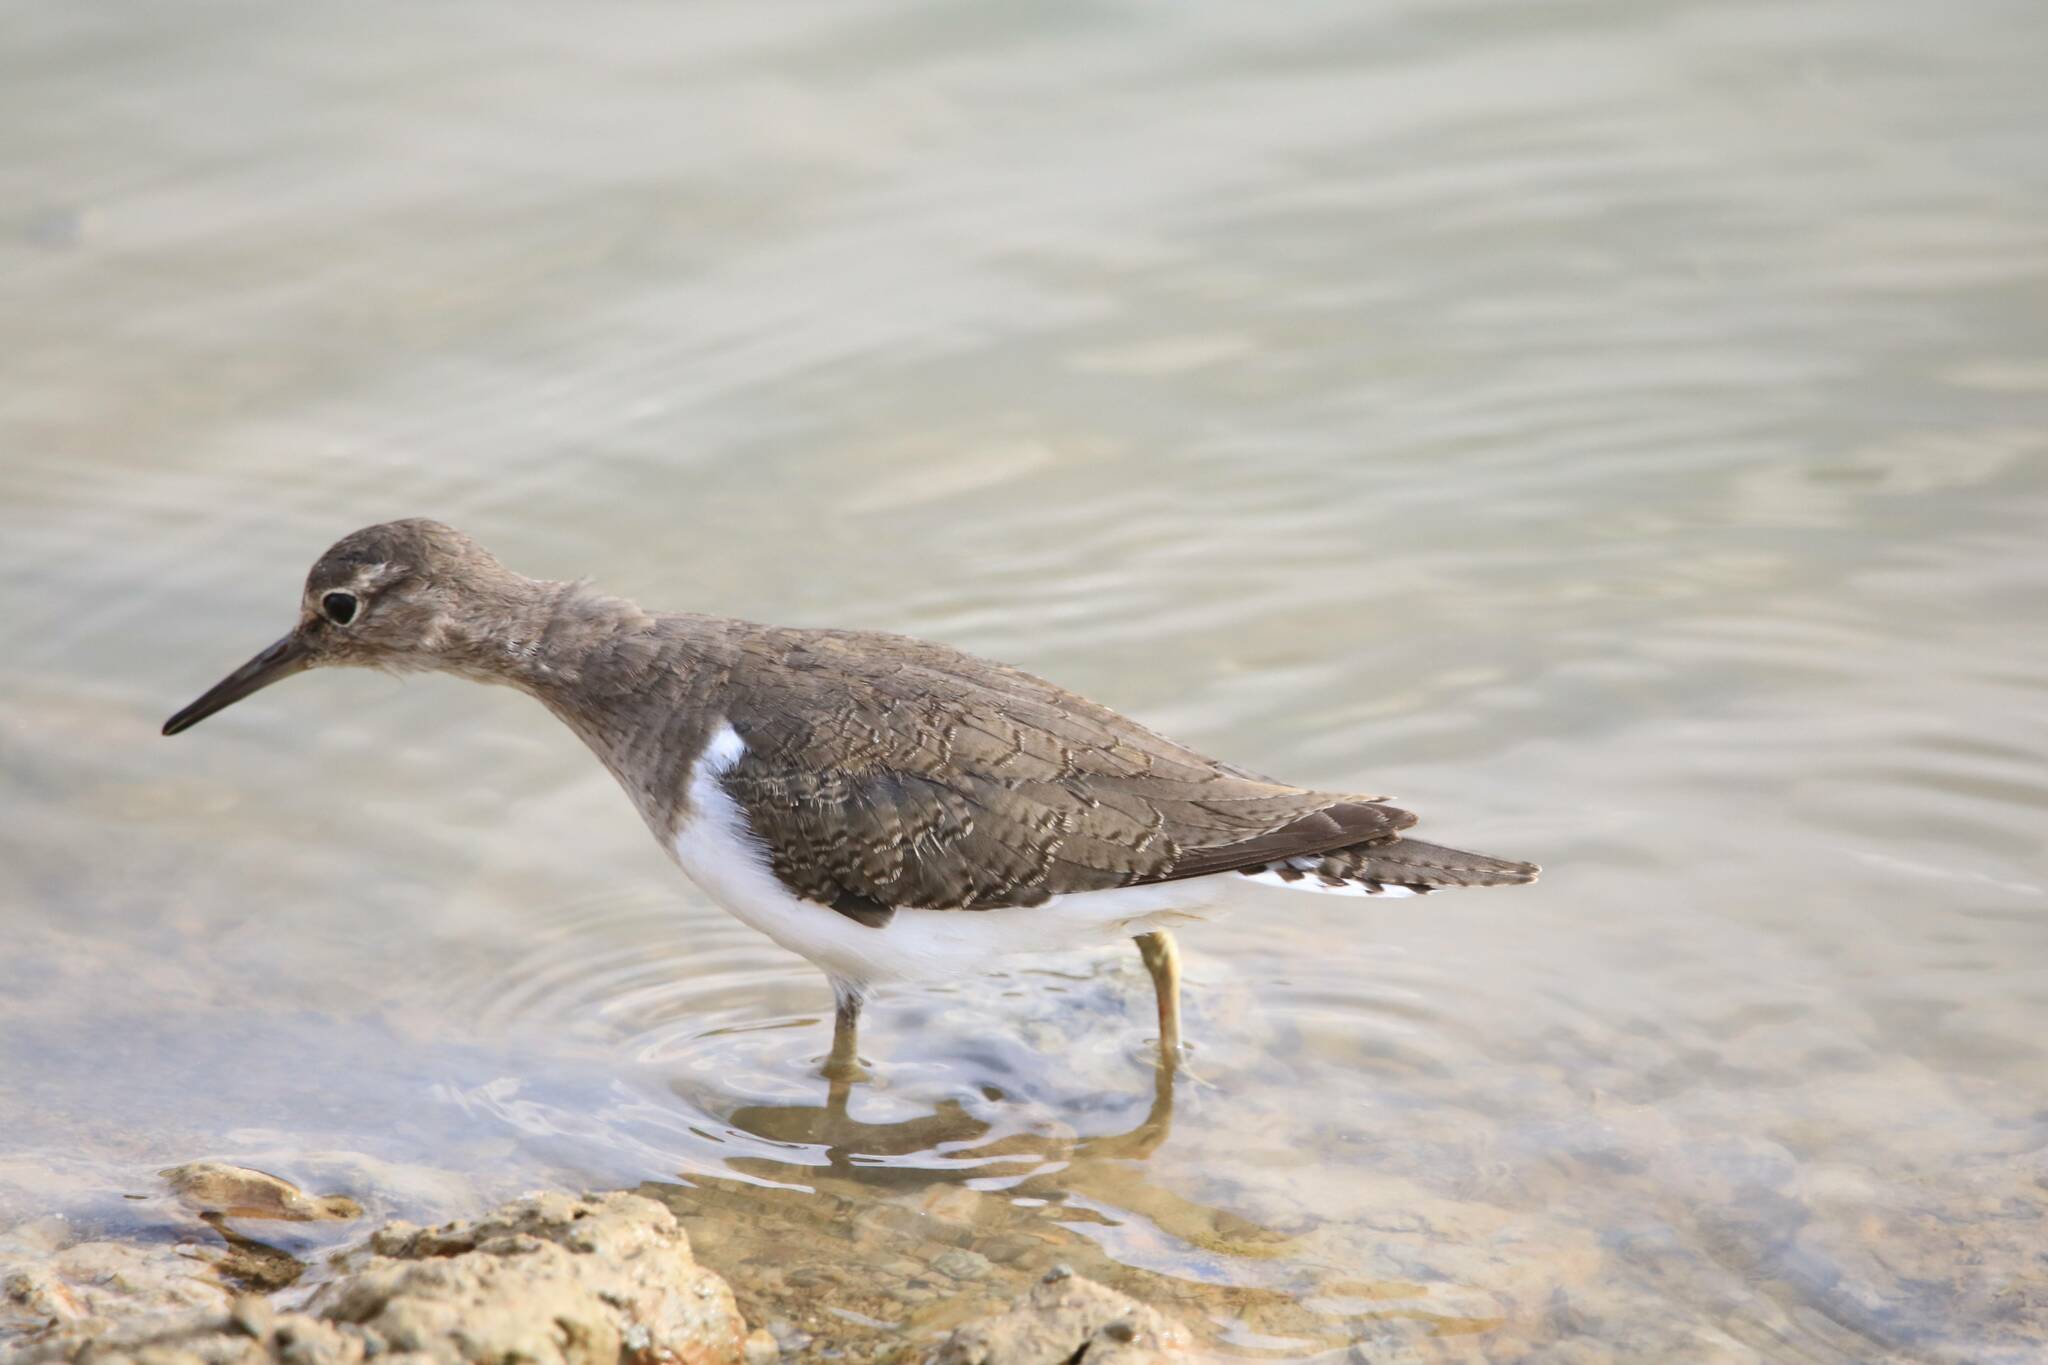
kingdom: Animalia
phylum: Chordata
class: Aves
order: Charadriiformes
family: Scolopacidae
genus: Actitis
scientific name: Actitis hypoleucos
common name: Common sandpiper
